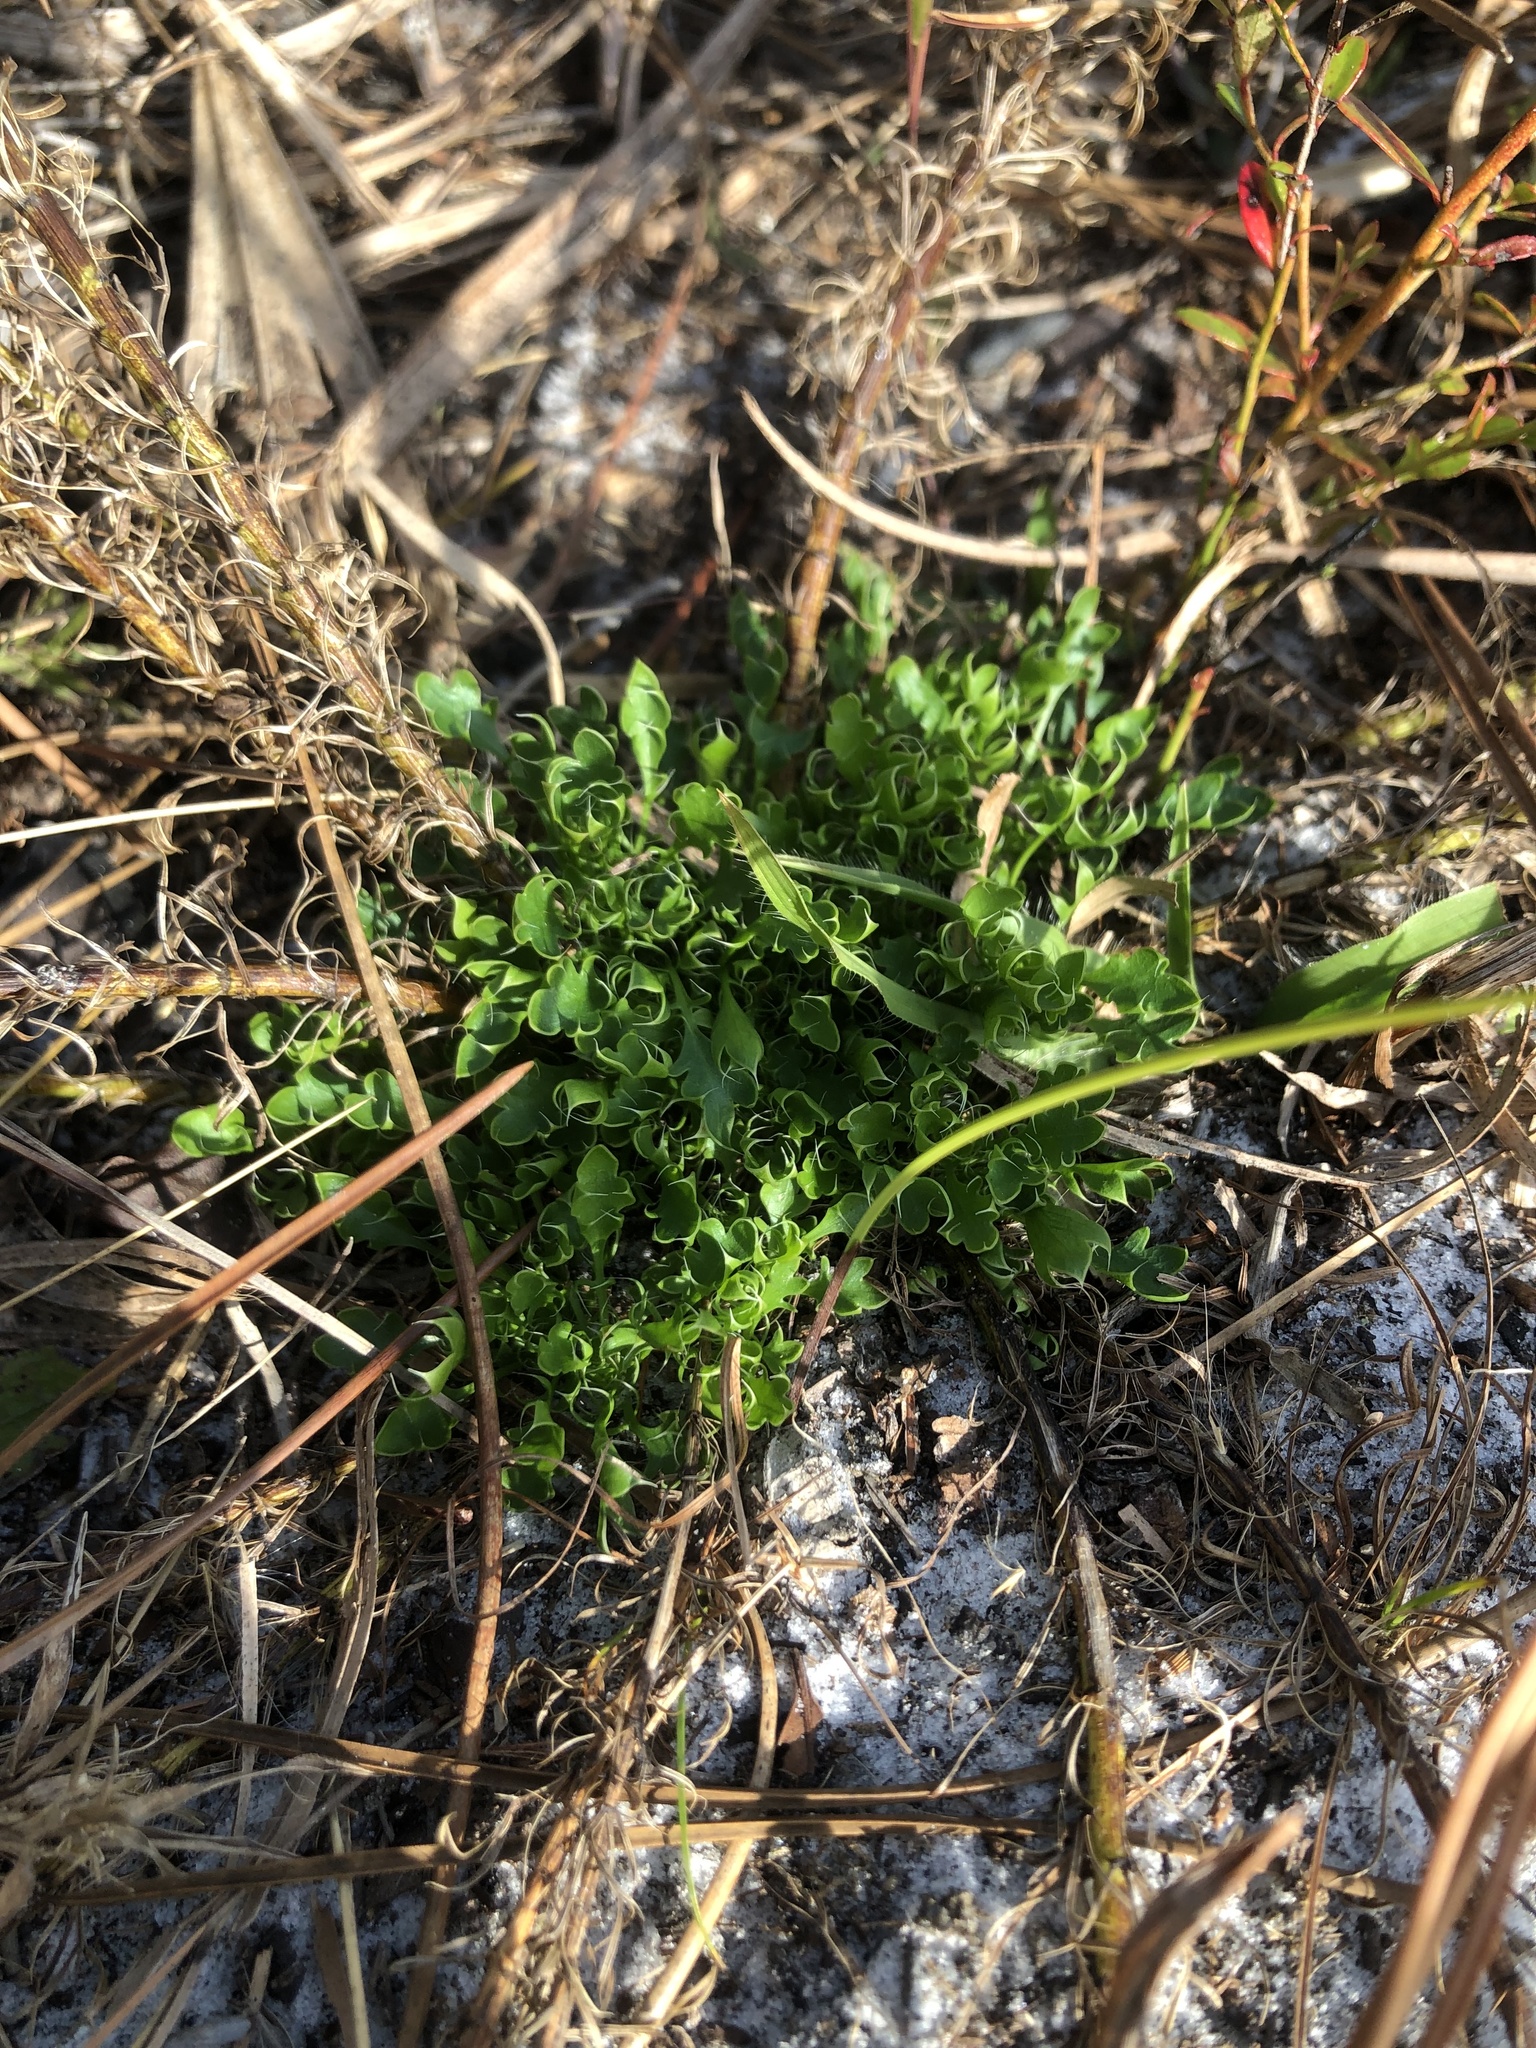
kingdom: Plantae
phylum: Tracheophyta
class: Magnoliopsida
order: Apiales
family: Apiaceae
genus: Eryngium
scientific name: Eryngium aromaticum
